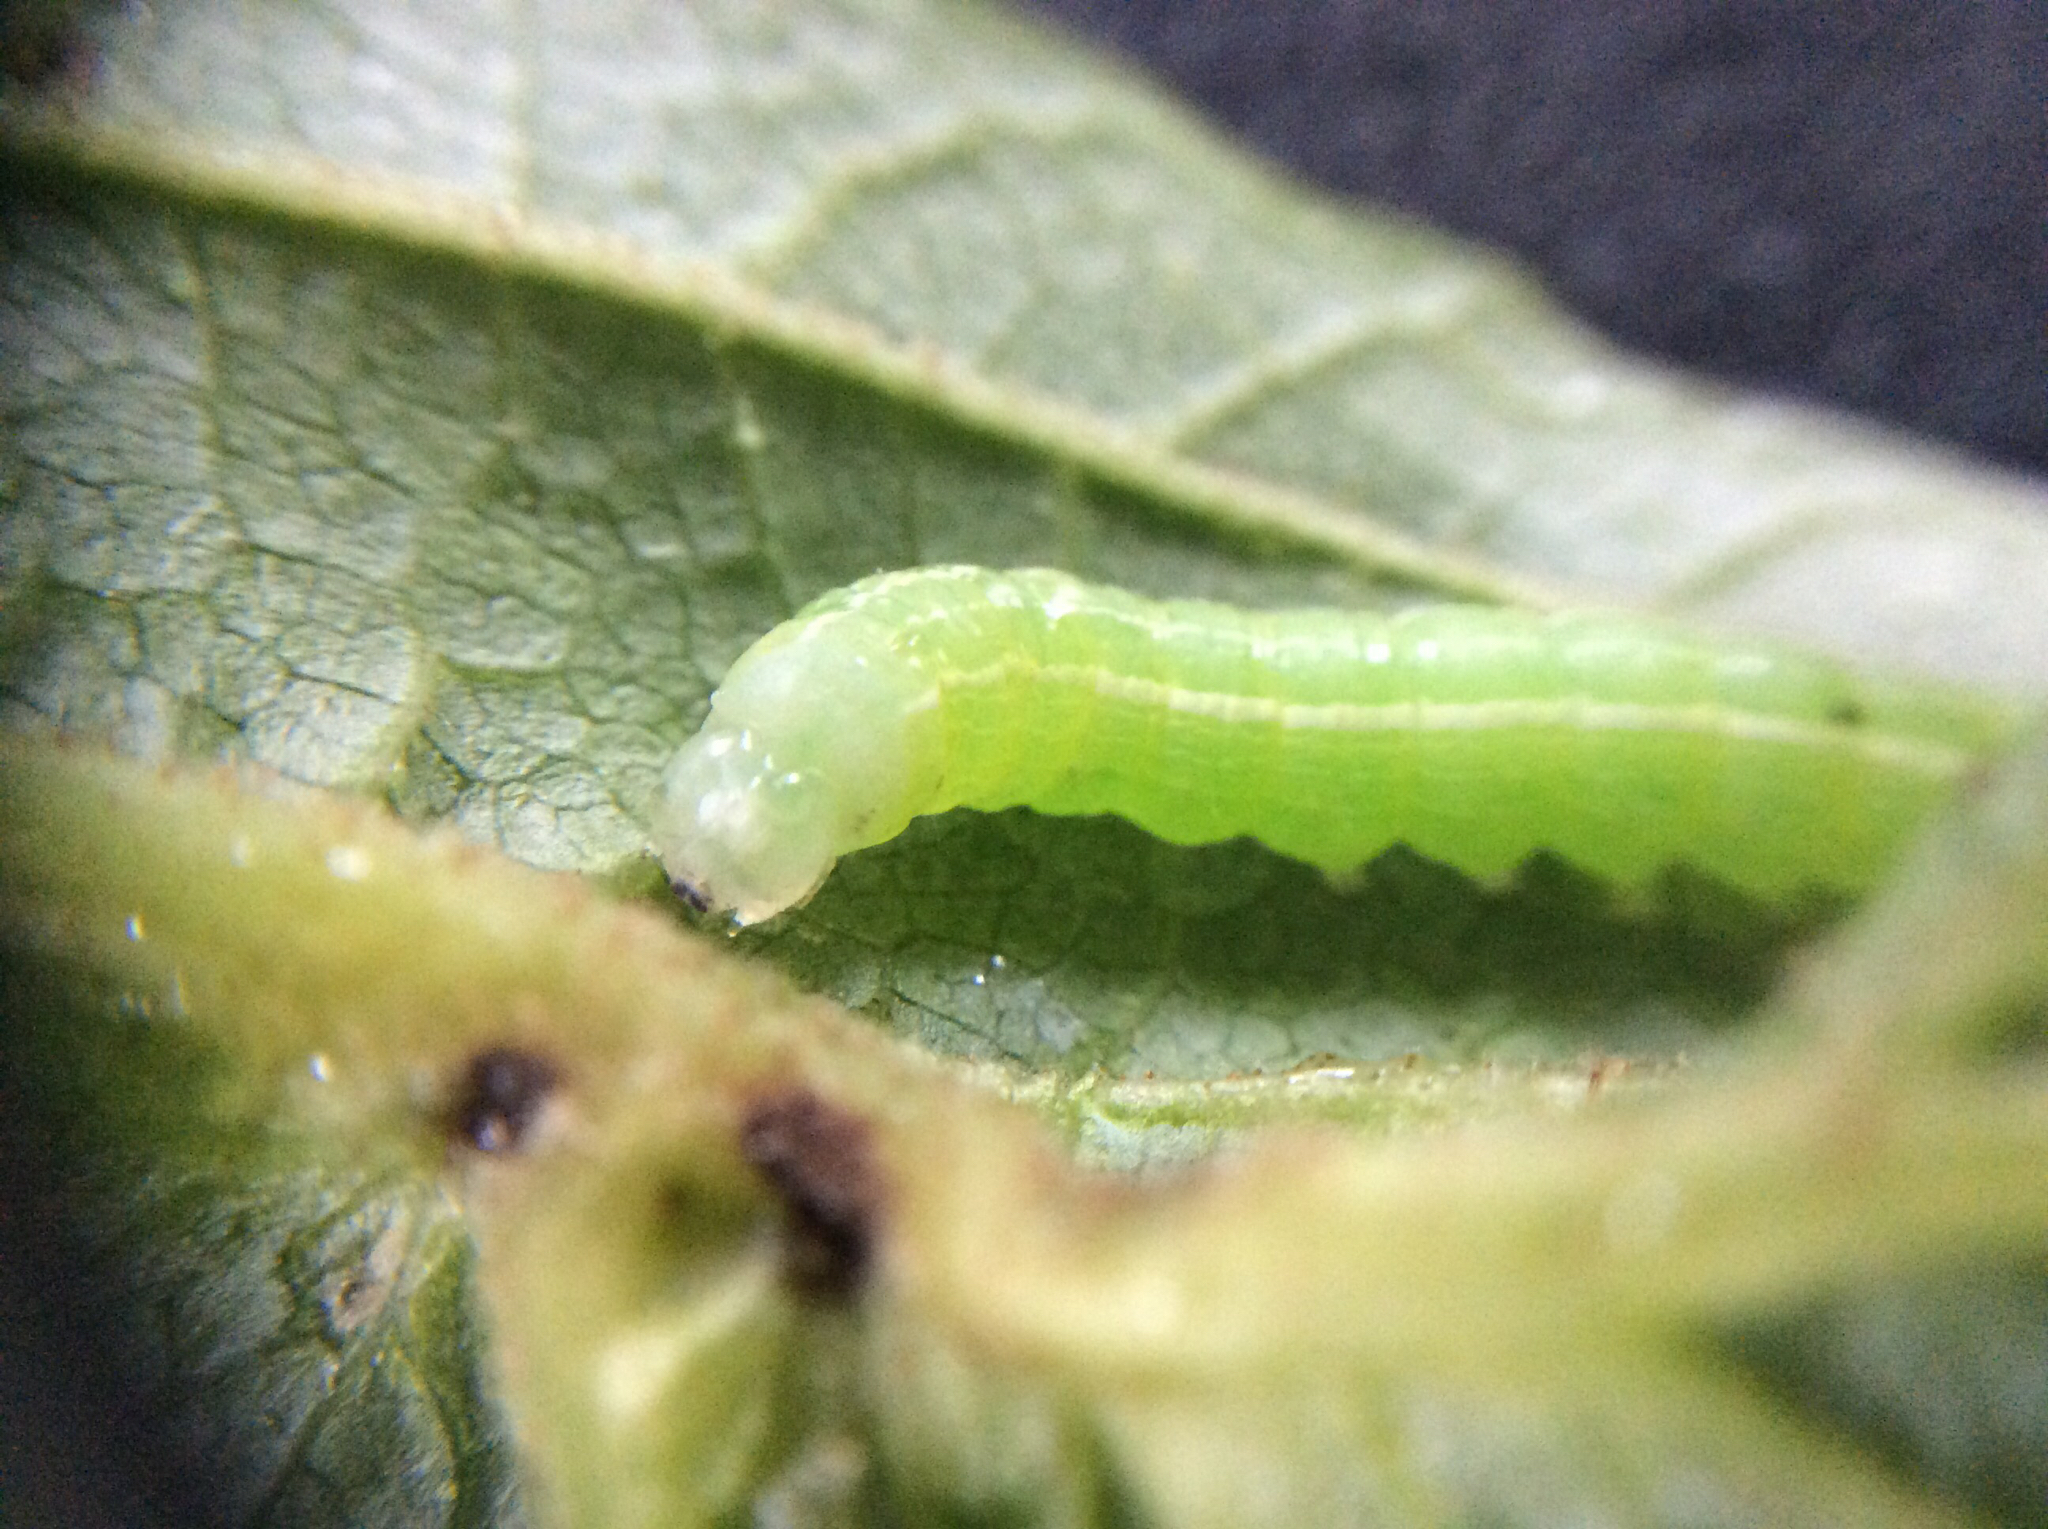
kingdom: Animalia
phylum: Arthropoda
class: Insecta
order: Lepidoptera
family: Noctuidae
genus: Kocakina
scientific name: Kocakina fidelis
